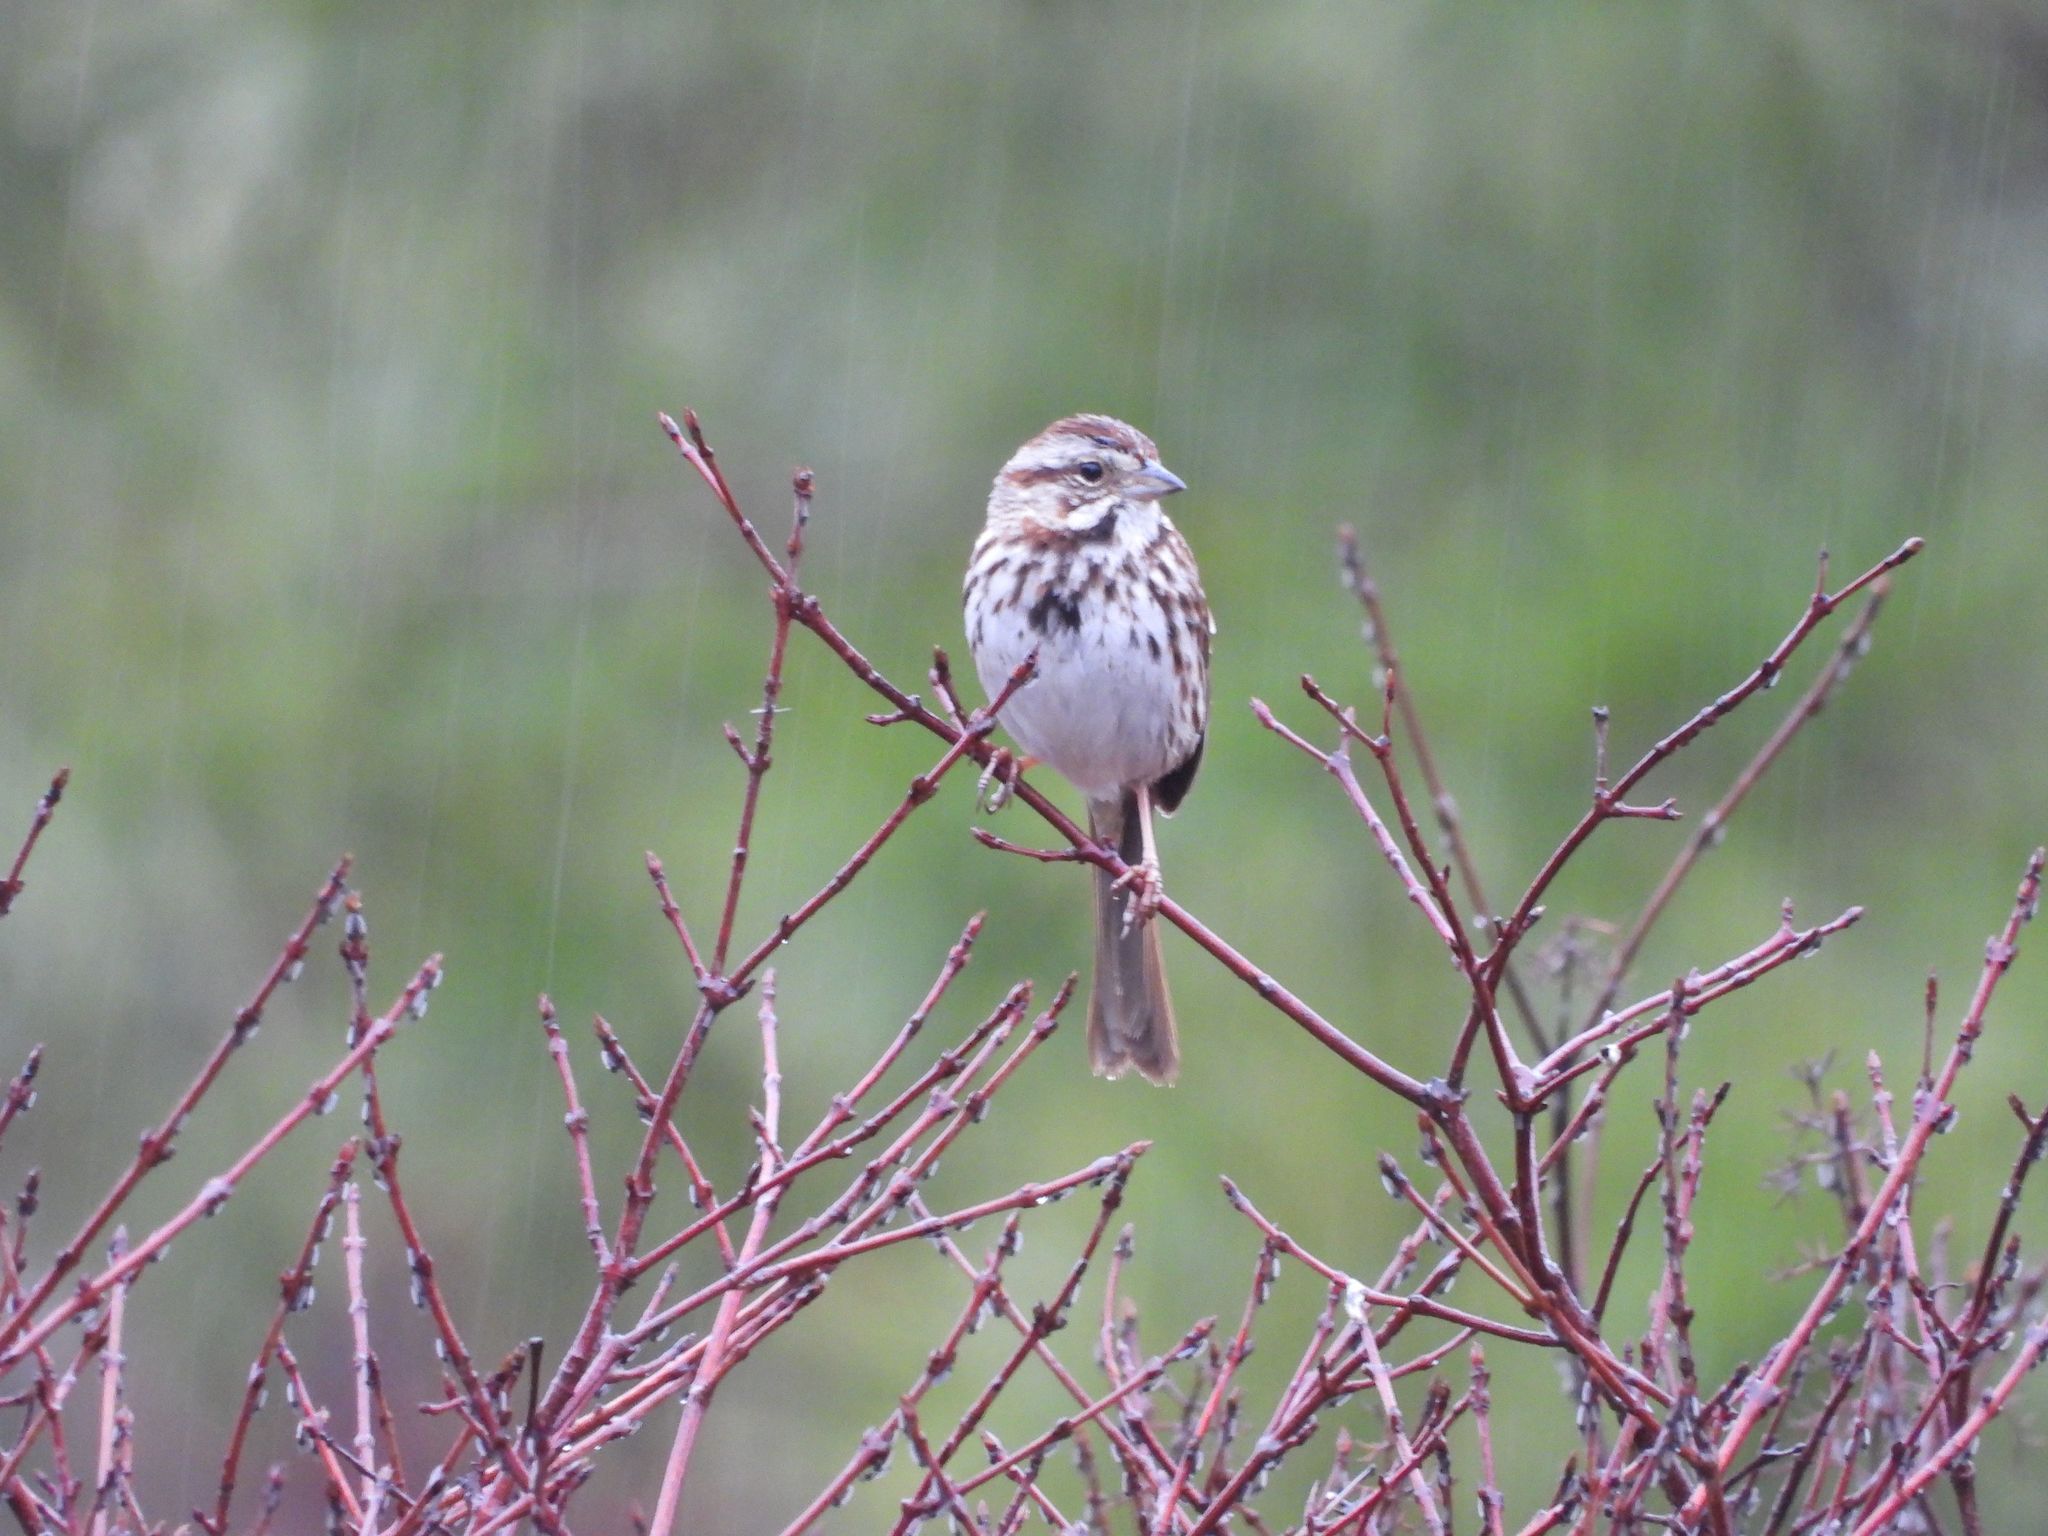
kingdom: Animalia
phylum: Chordata
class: Aves
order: Passeriformes
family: Passerellidae
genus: Melospiza
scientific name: Melospiza melodia
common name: Song sparrow
